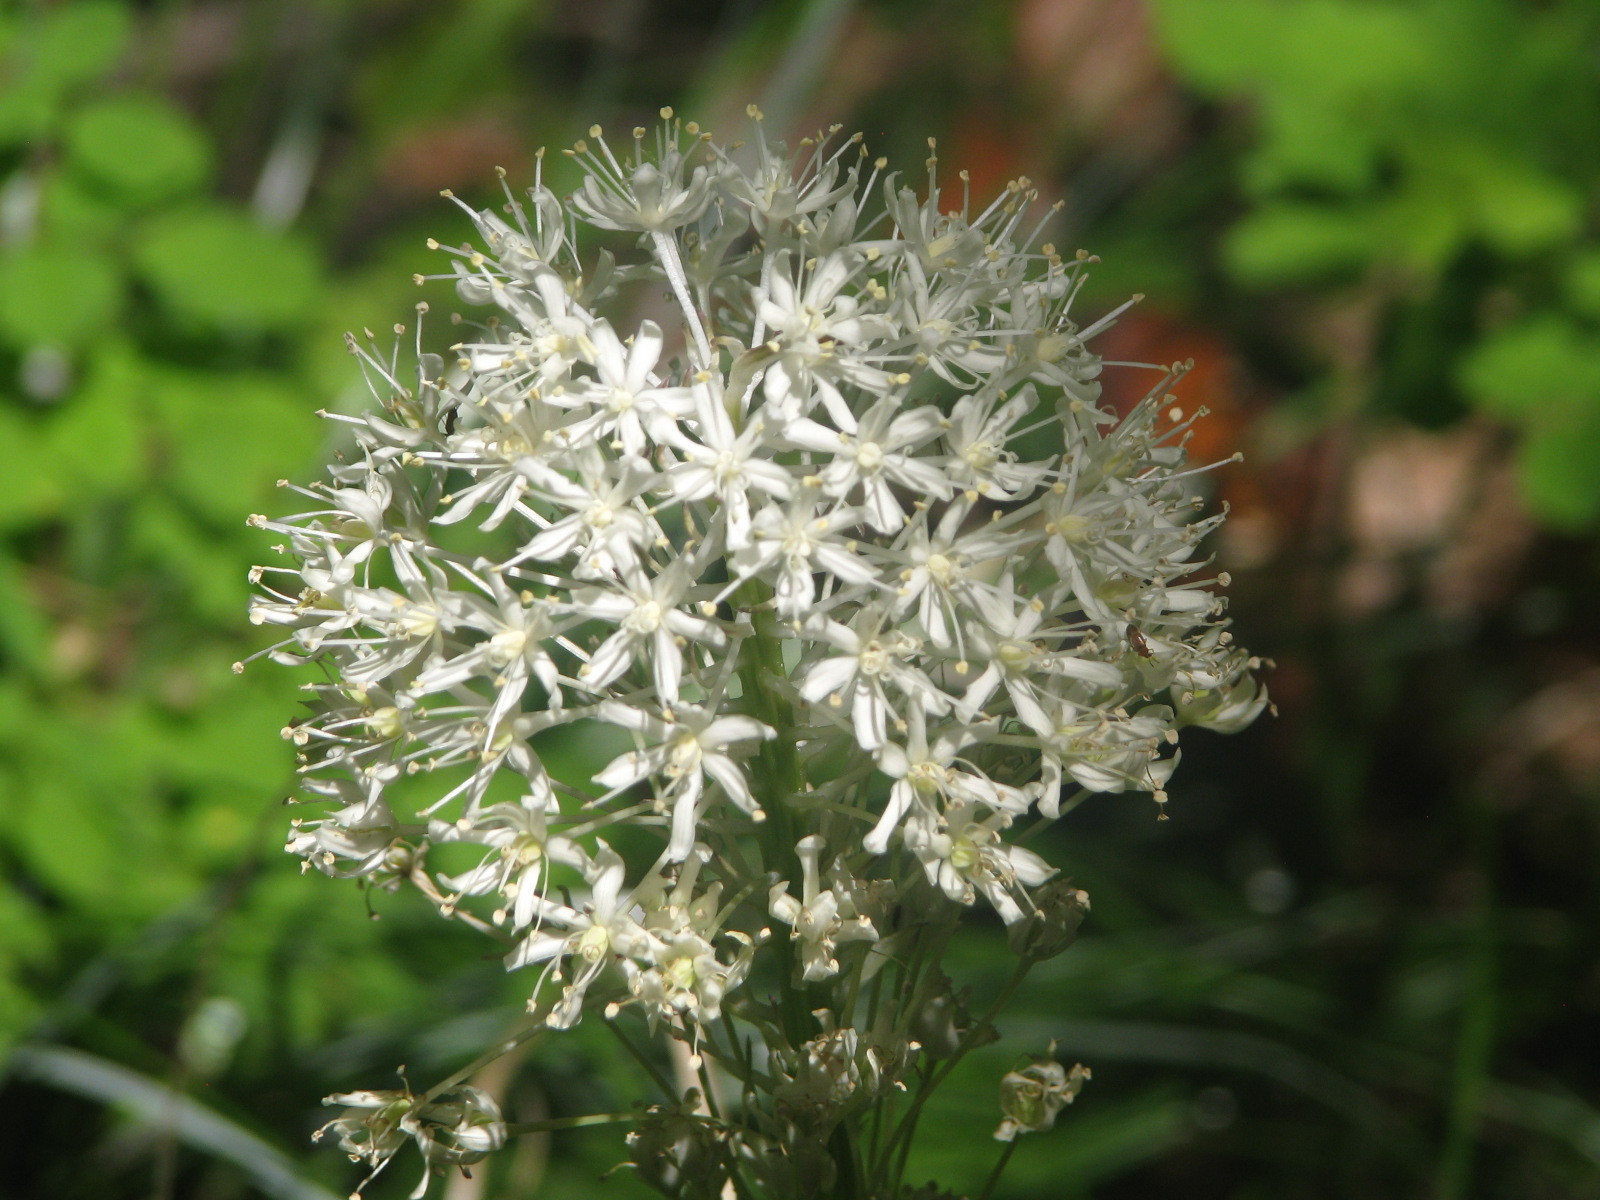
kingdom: Plantae
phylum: Tracheophyta
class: Liliopsida
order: Liliales
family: Melanthiaceae
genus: Xerophyllum
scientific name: Xerophyllum tenax
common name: Bear-grass
